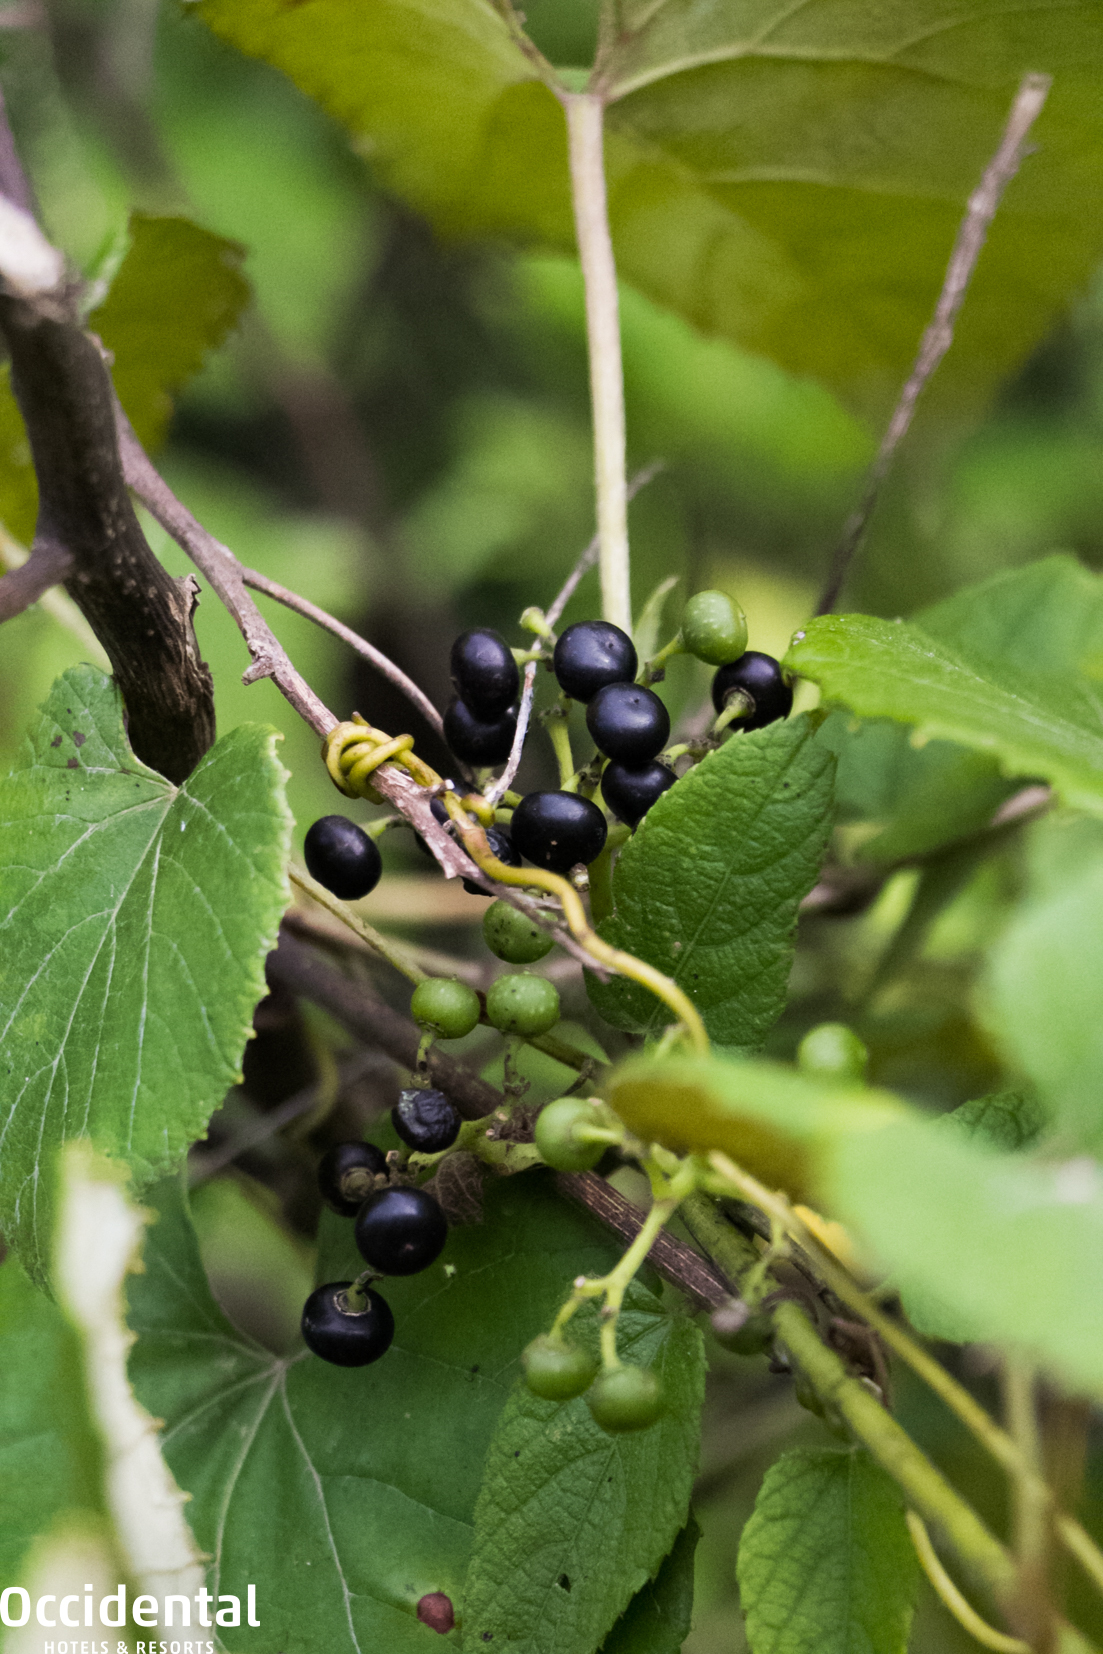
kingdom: Plantae
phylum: Tracheophyta
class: Magnoliopsida
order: Vitales
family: Vitaceae
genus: Cissus
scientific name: Cissus verticillata
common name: Princess vine
